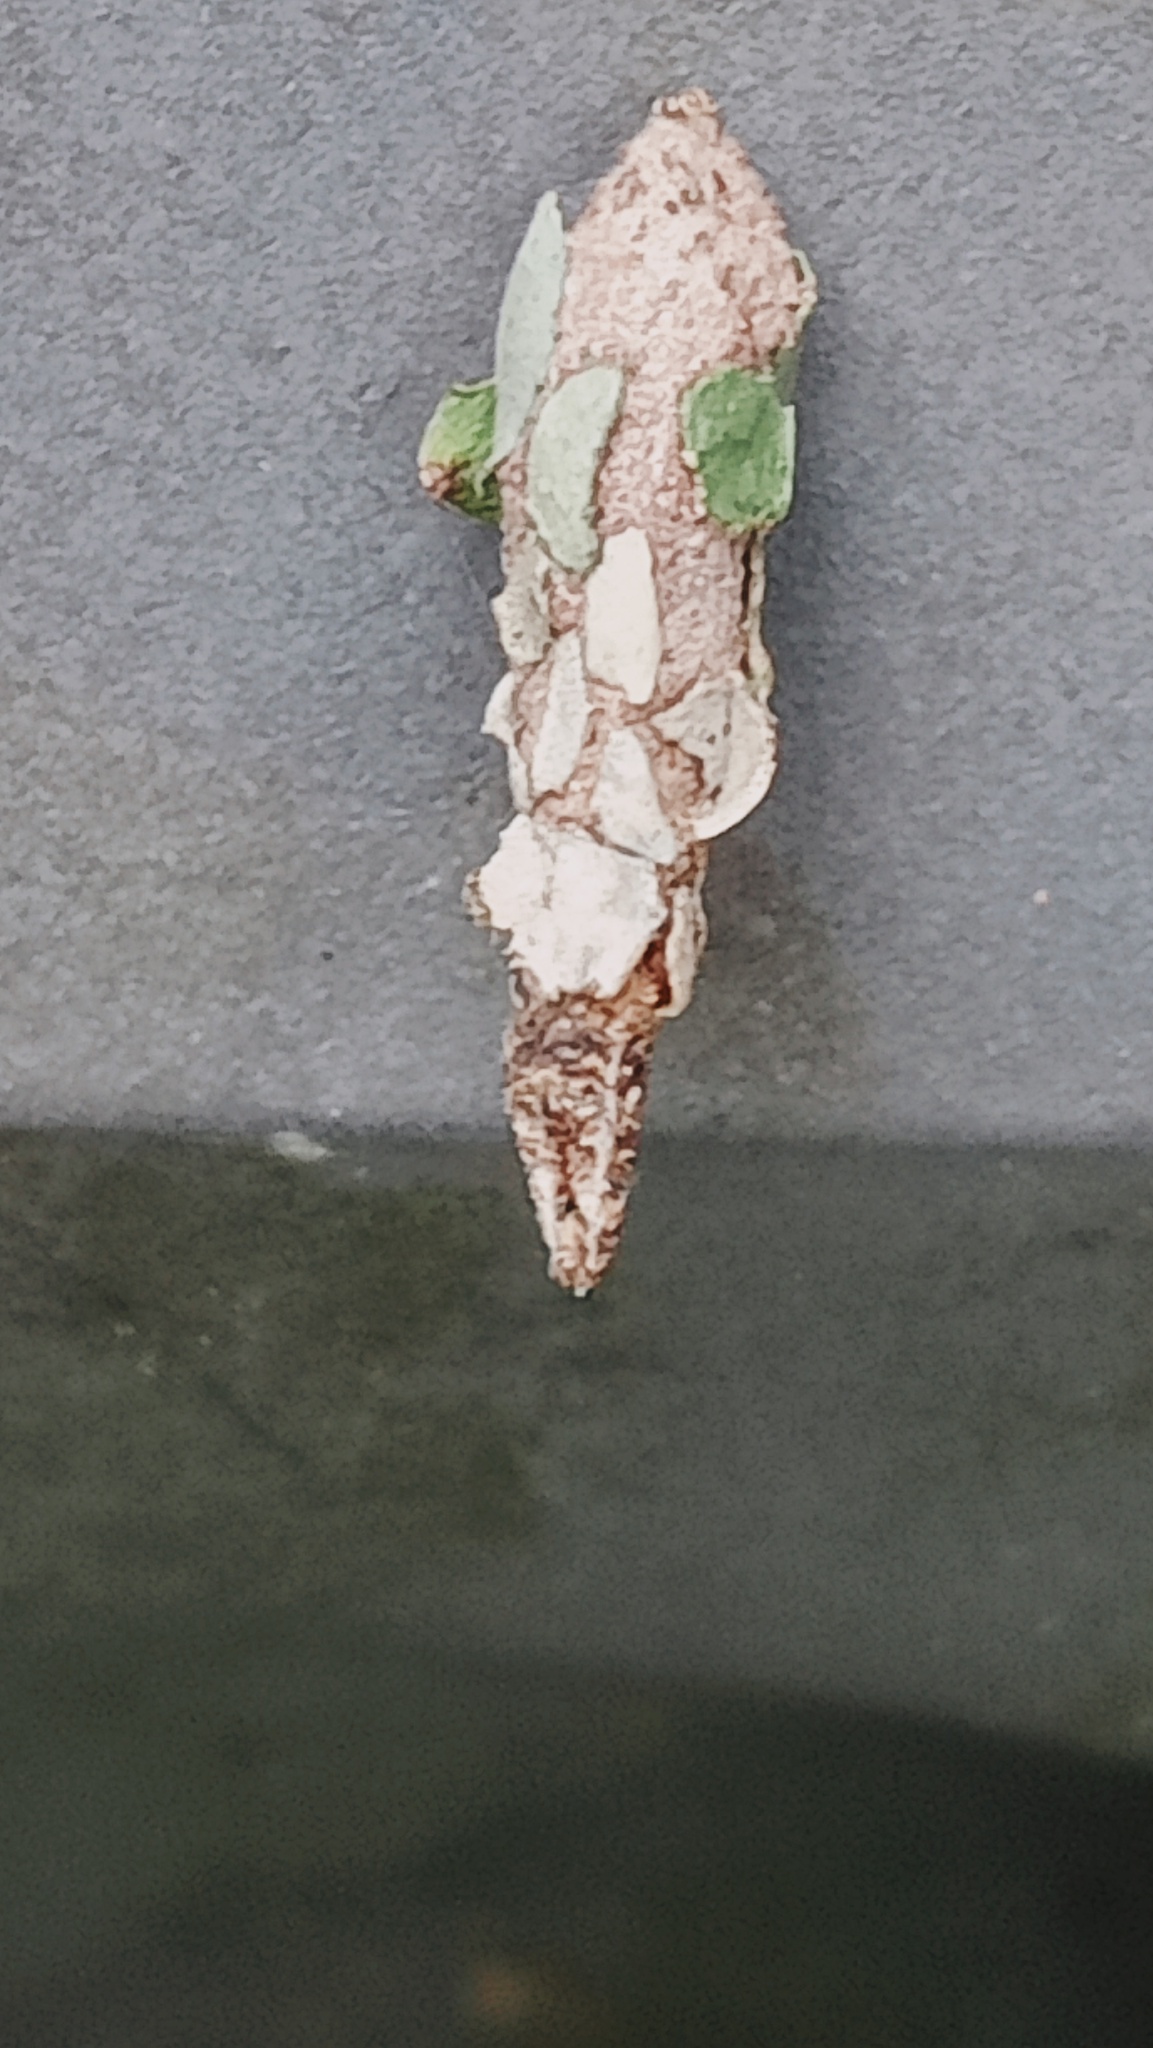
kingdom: Animalia
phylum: Arthropoda
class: Insecta
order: Lepidoptera
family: Psychidae
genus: Liothula
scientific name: Liothula omnivora
